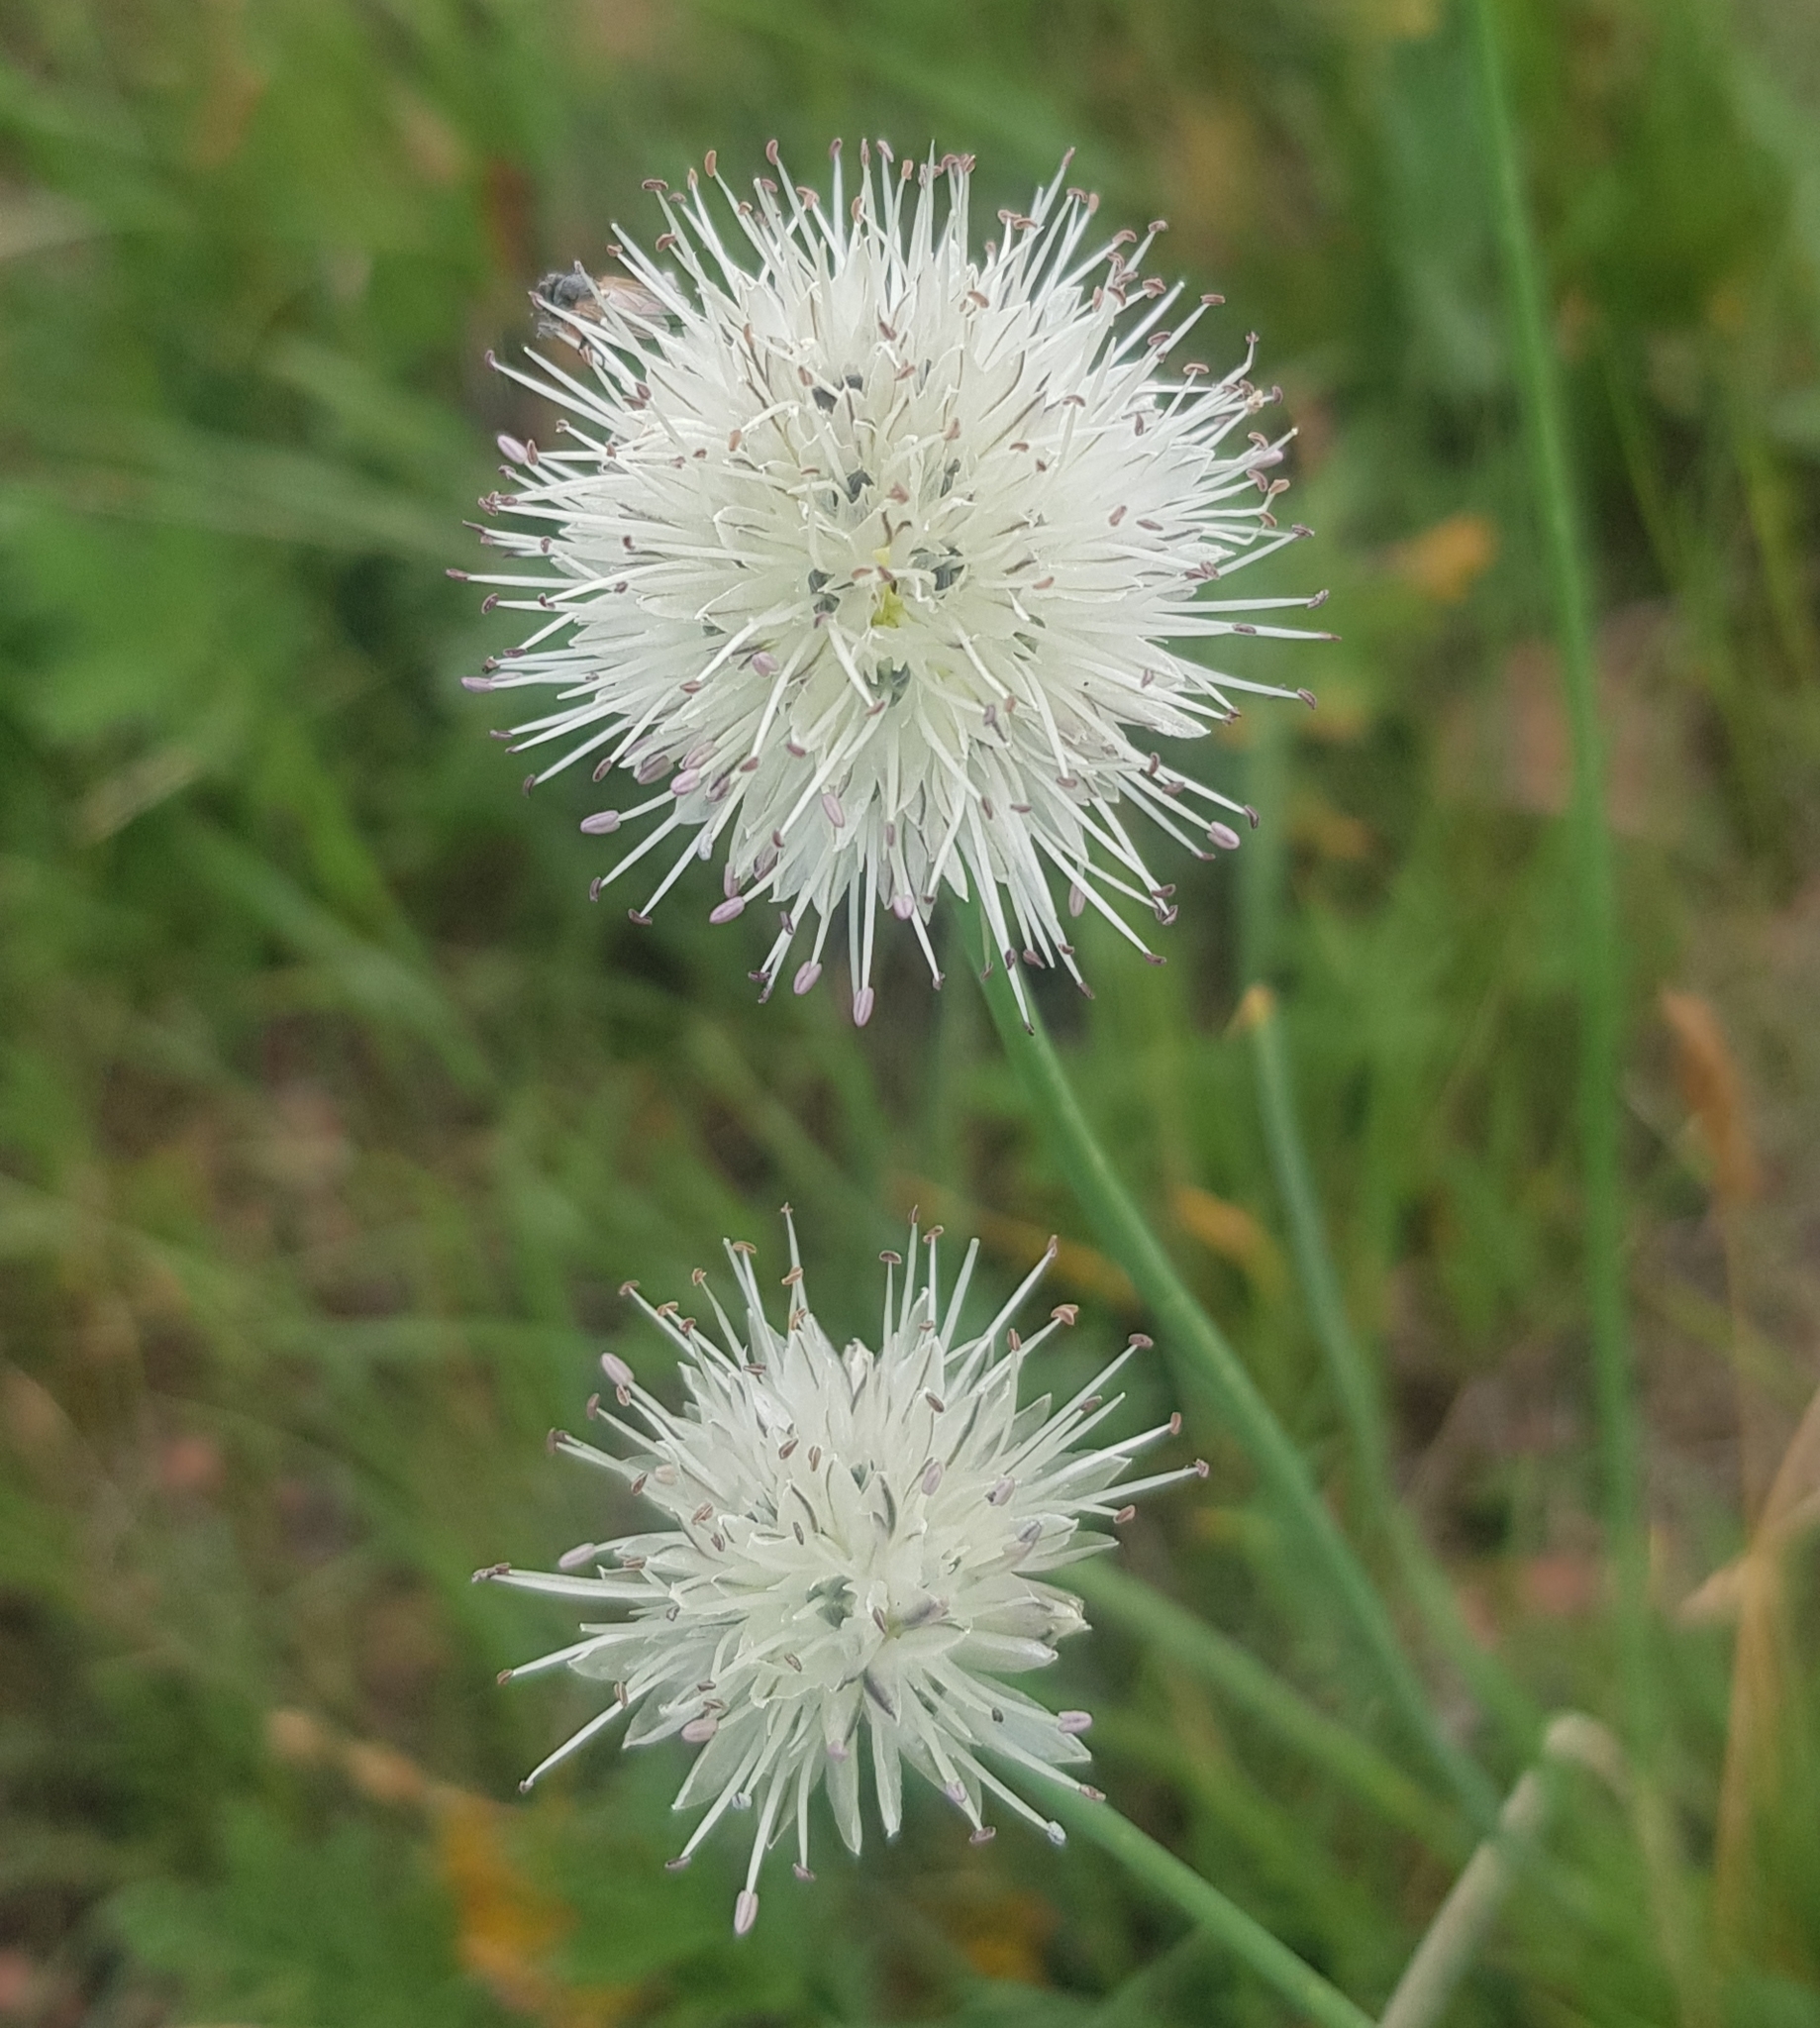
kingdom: Plantae
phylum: Tracheophyta
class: Liliopsida
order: Asparagales
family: Amaryllidaceae
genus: Allium
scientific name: Allium leucocephalum
